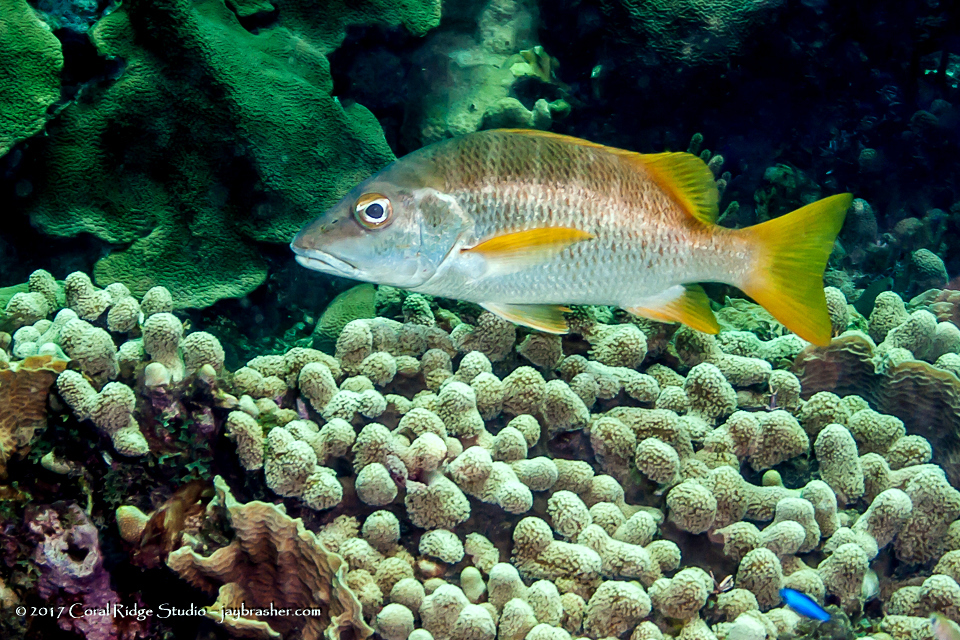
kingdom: Animalia
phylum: Chordata
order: Perciformes
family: Lutjanidae
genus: Lutjanus
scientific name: Lutjanus apodus
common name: Schoolmaster
